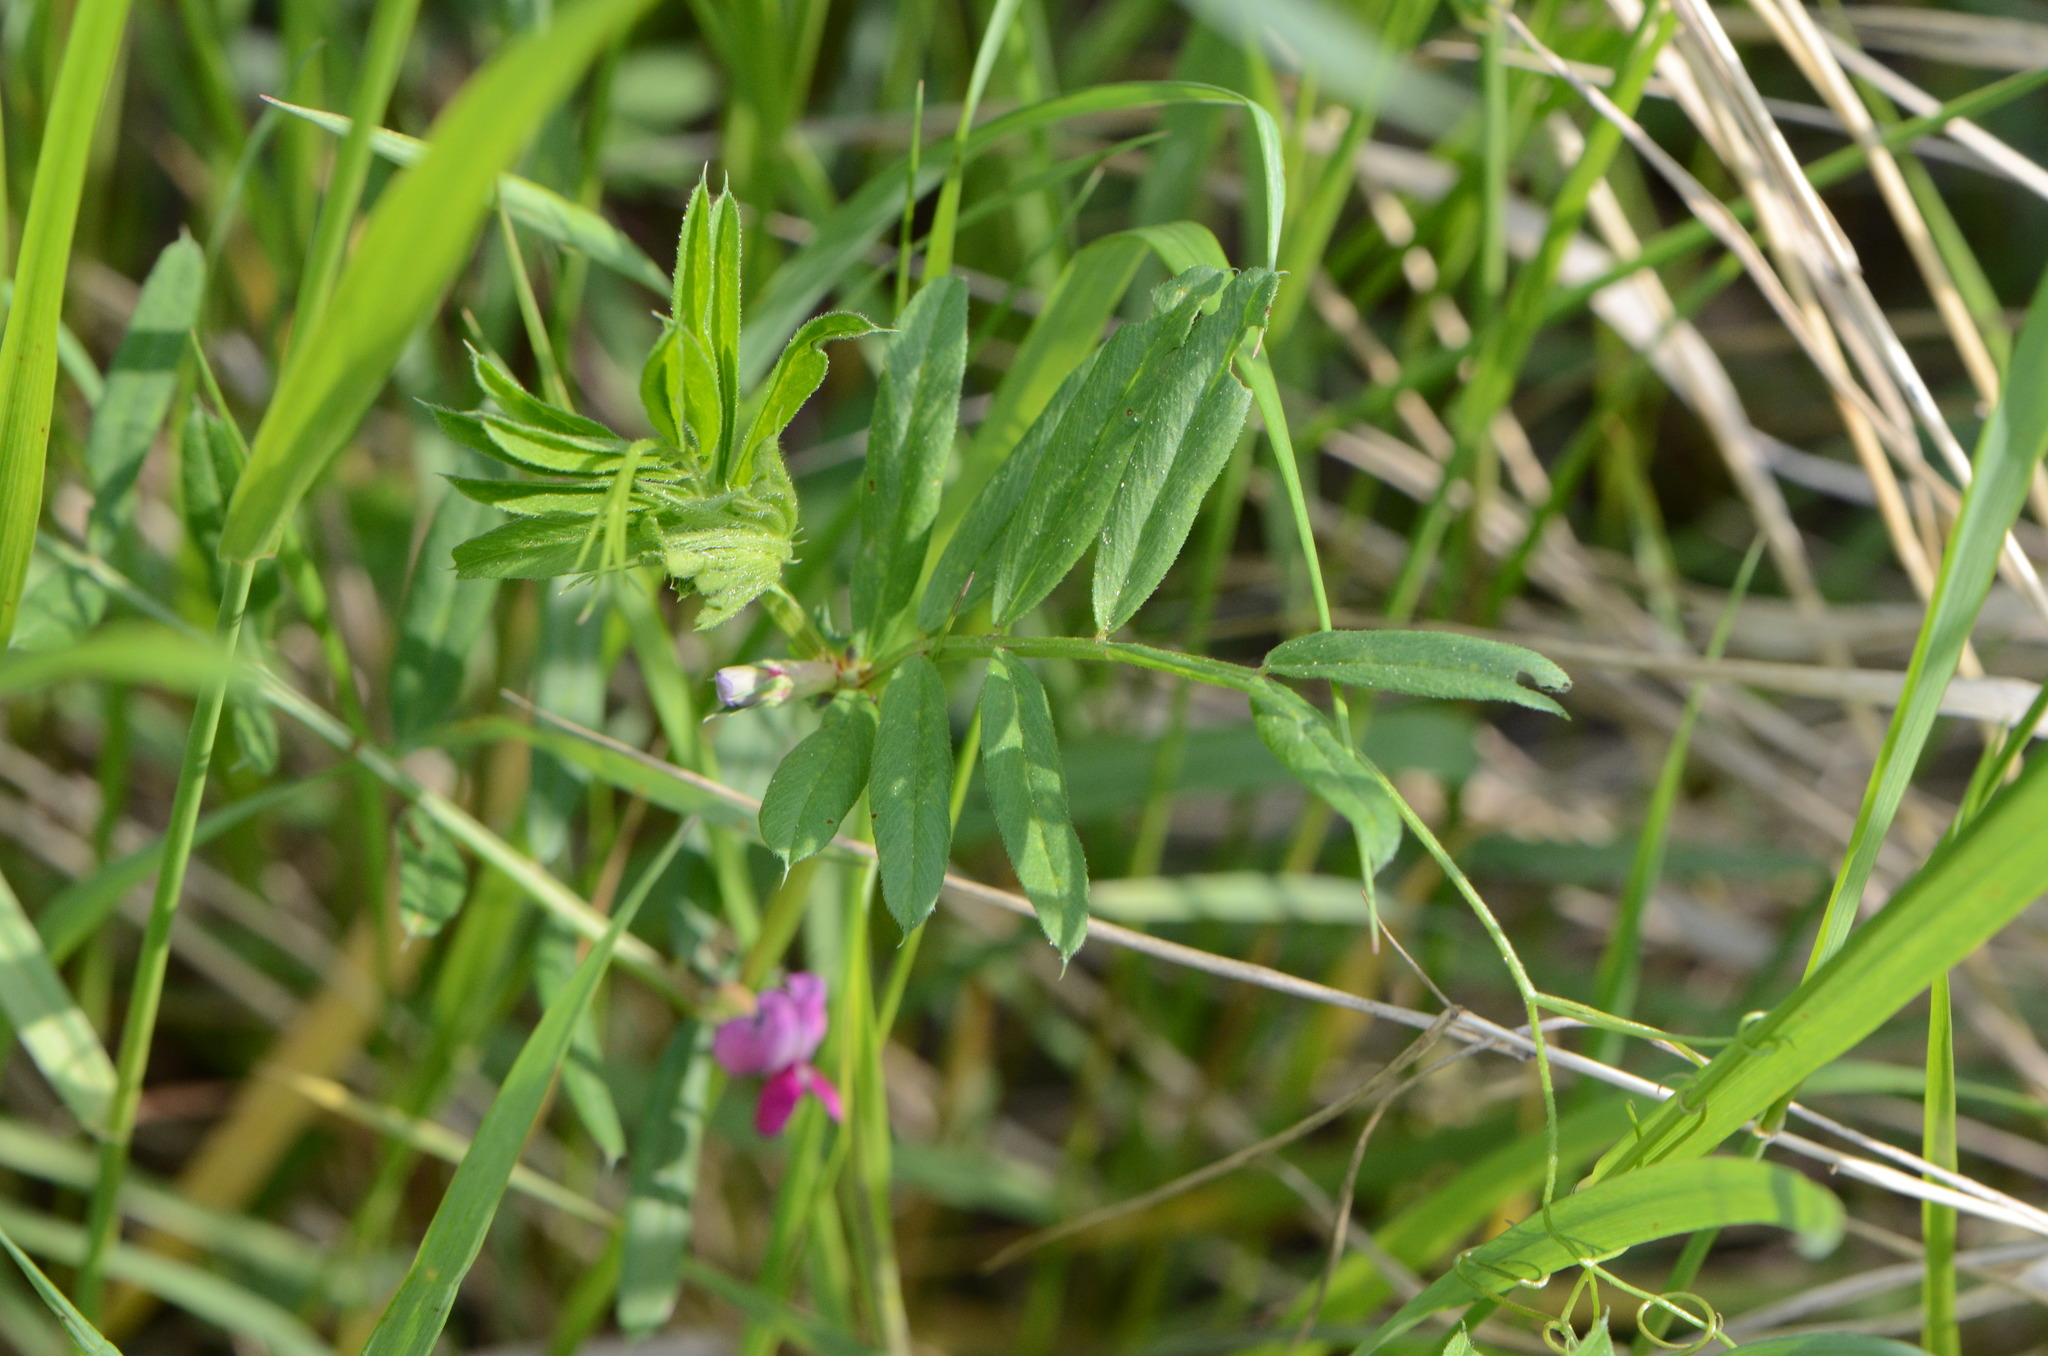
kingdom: Plantae
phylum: Tracheophyta
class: Magnoliopsida
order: Fabales
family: Fabaceae
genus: Vicia
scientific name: Vicia sativa
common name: Garden vetch
